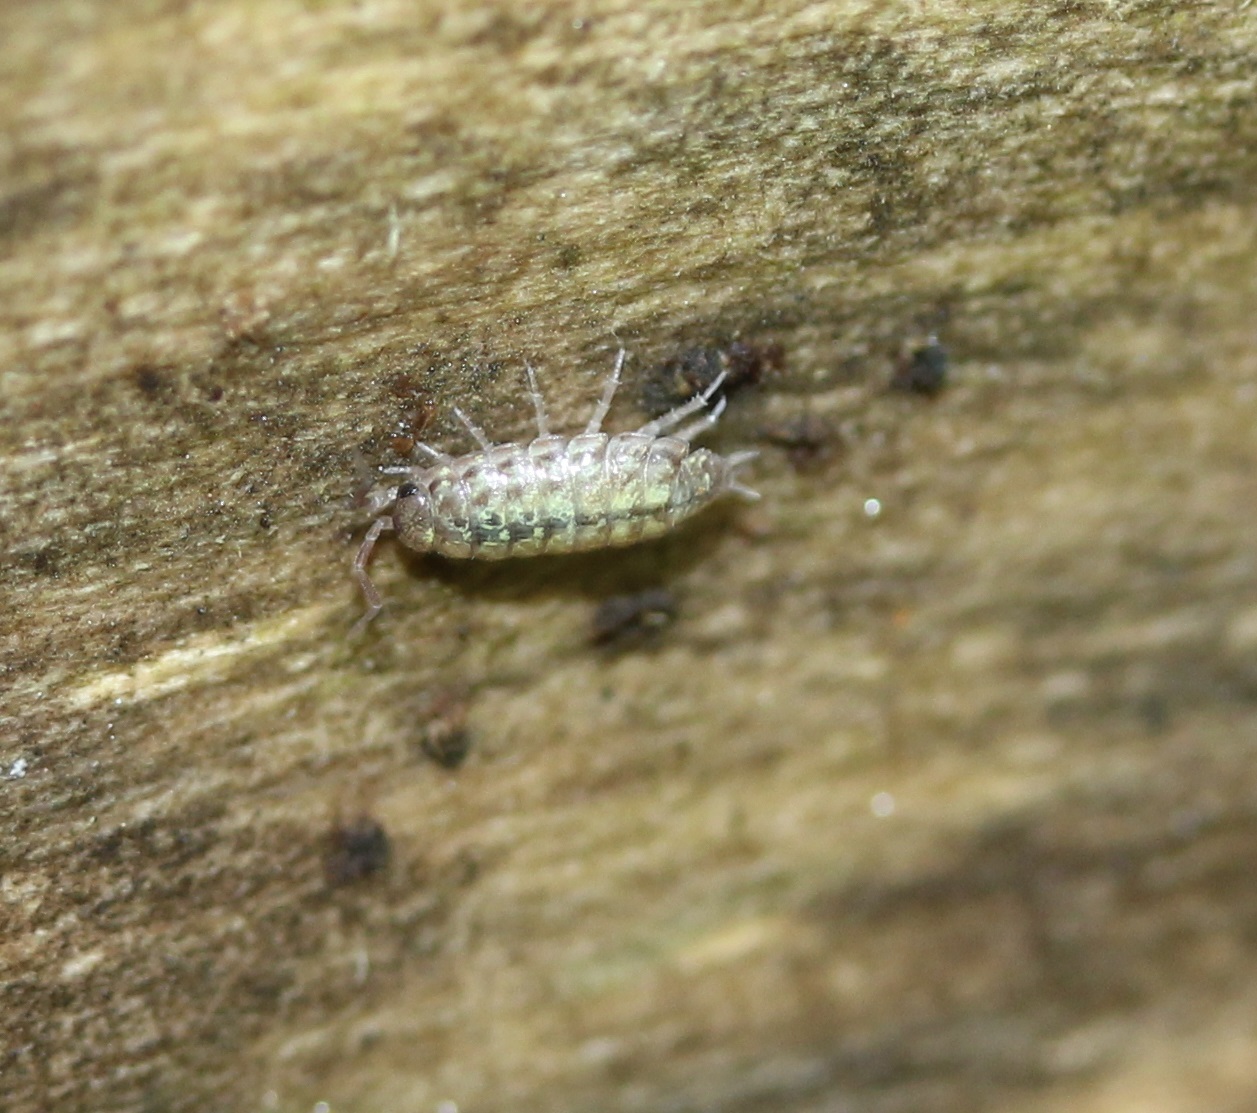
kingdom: Animalia
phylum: Arthropoda
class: Malacostraca
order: Isopoda
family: Philosciidae
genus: Philoscia
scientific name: Philoscia muscorum
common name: Common striped woodlouse
